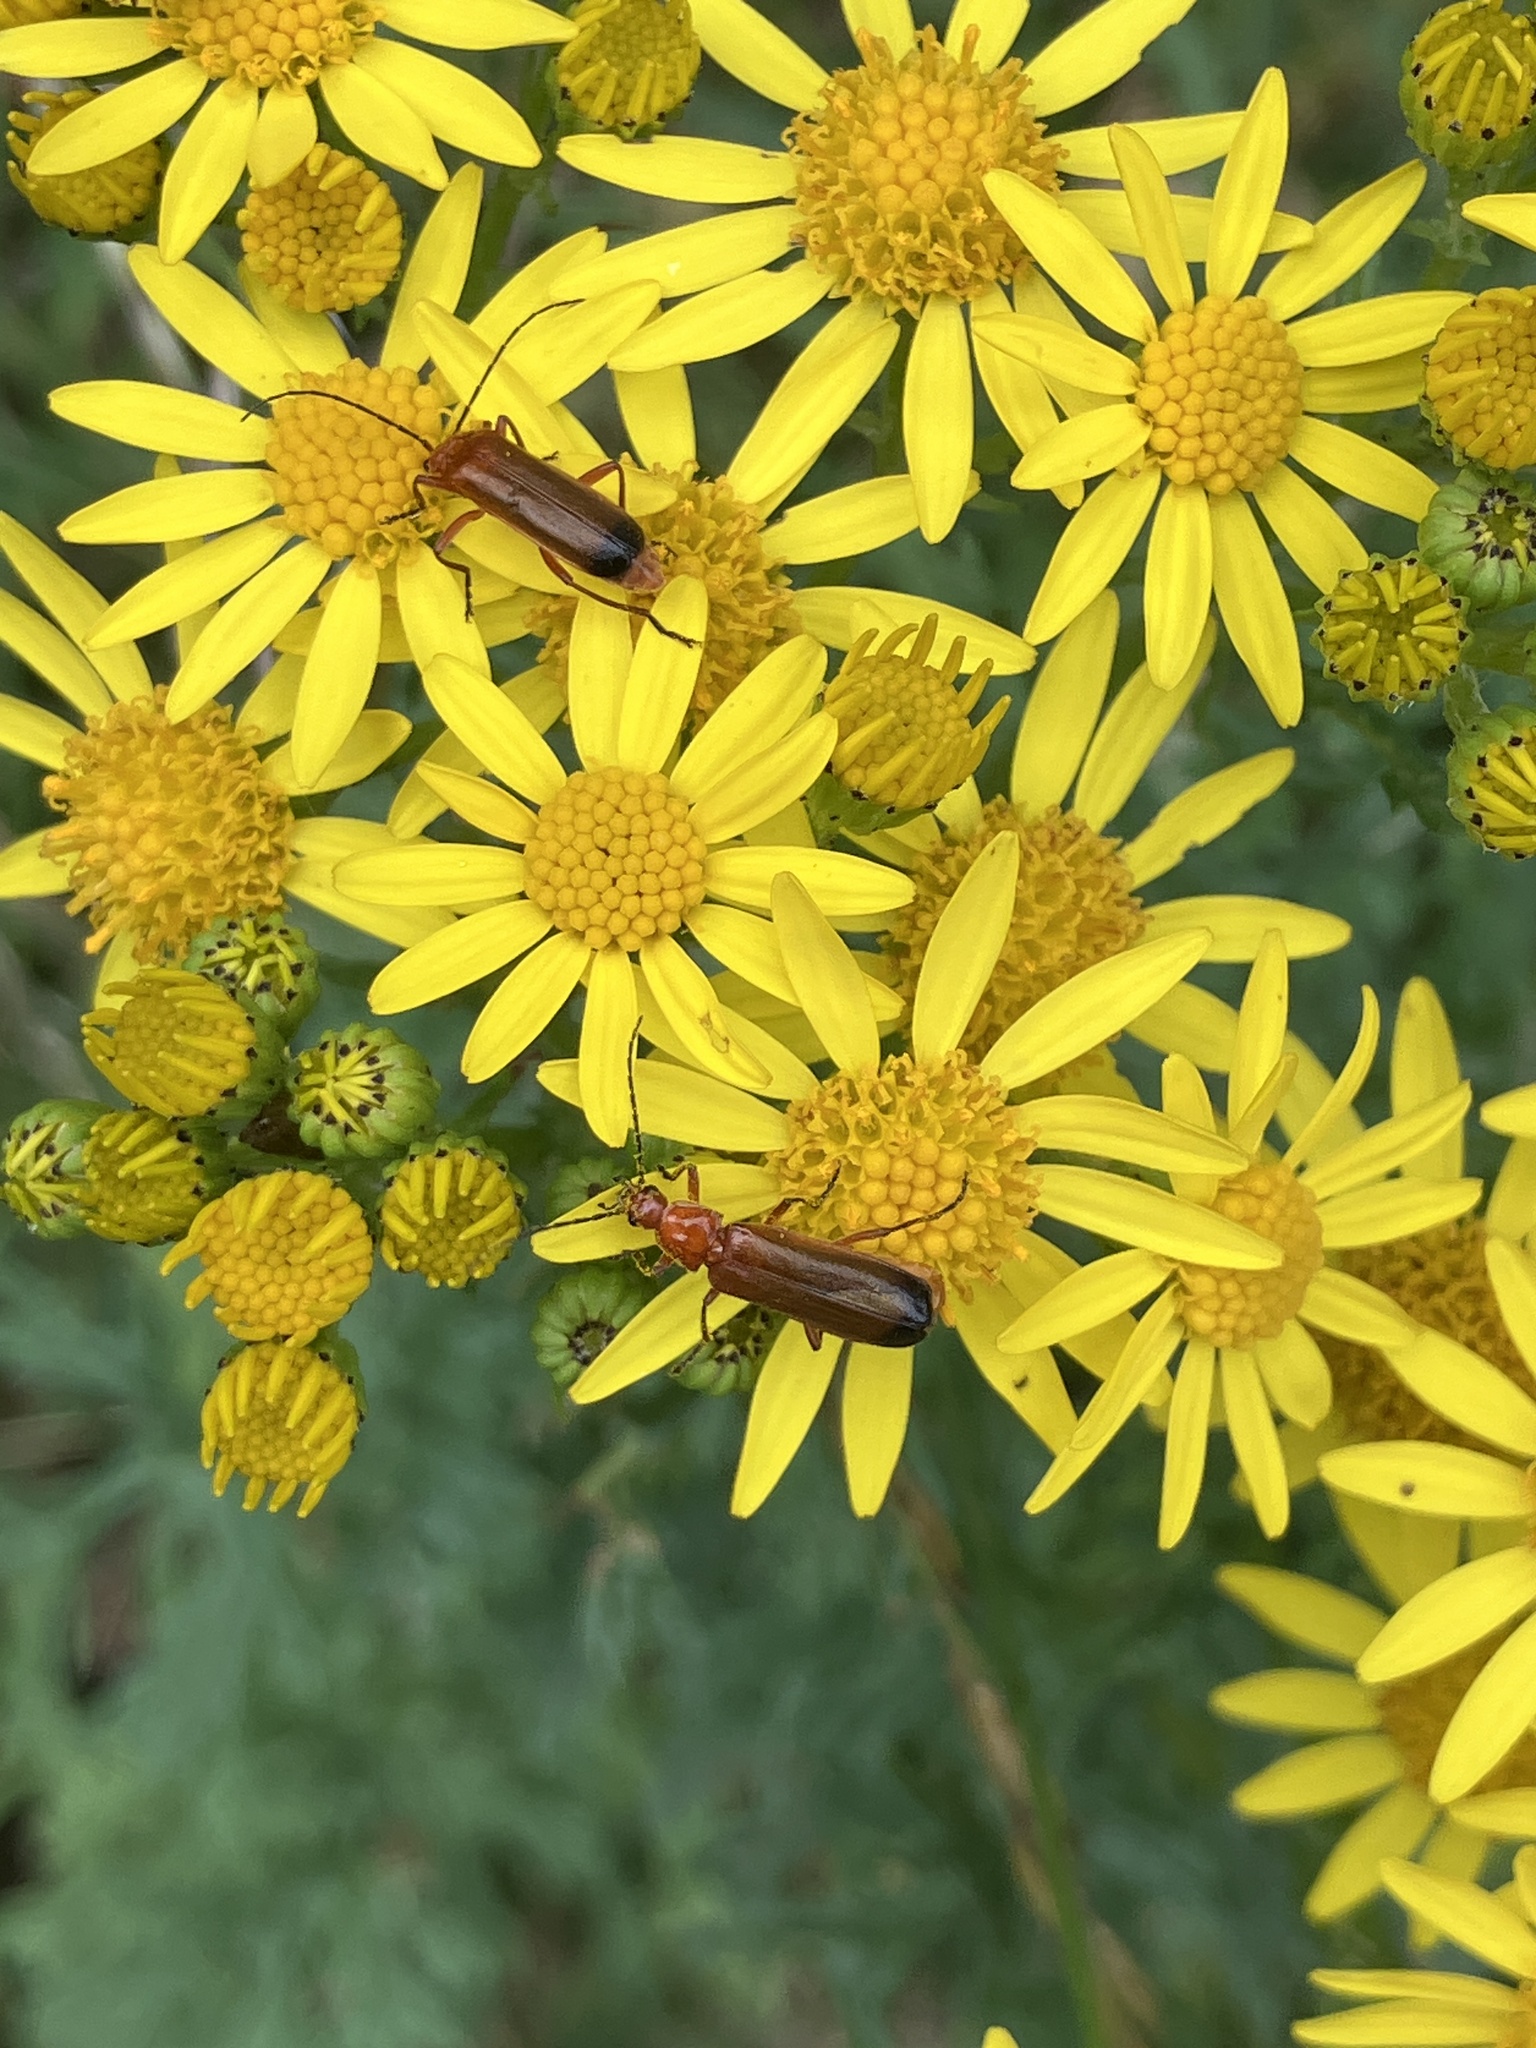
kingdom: Animalia
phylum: Arthropoda
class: Insecta
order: Coleoptera
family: Cantharidae
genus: Rhagonycha
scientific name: Rhagonycha fulva
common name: Common red soldier beetle
